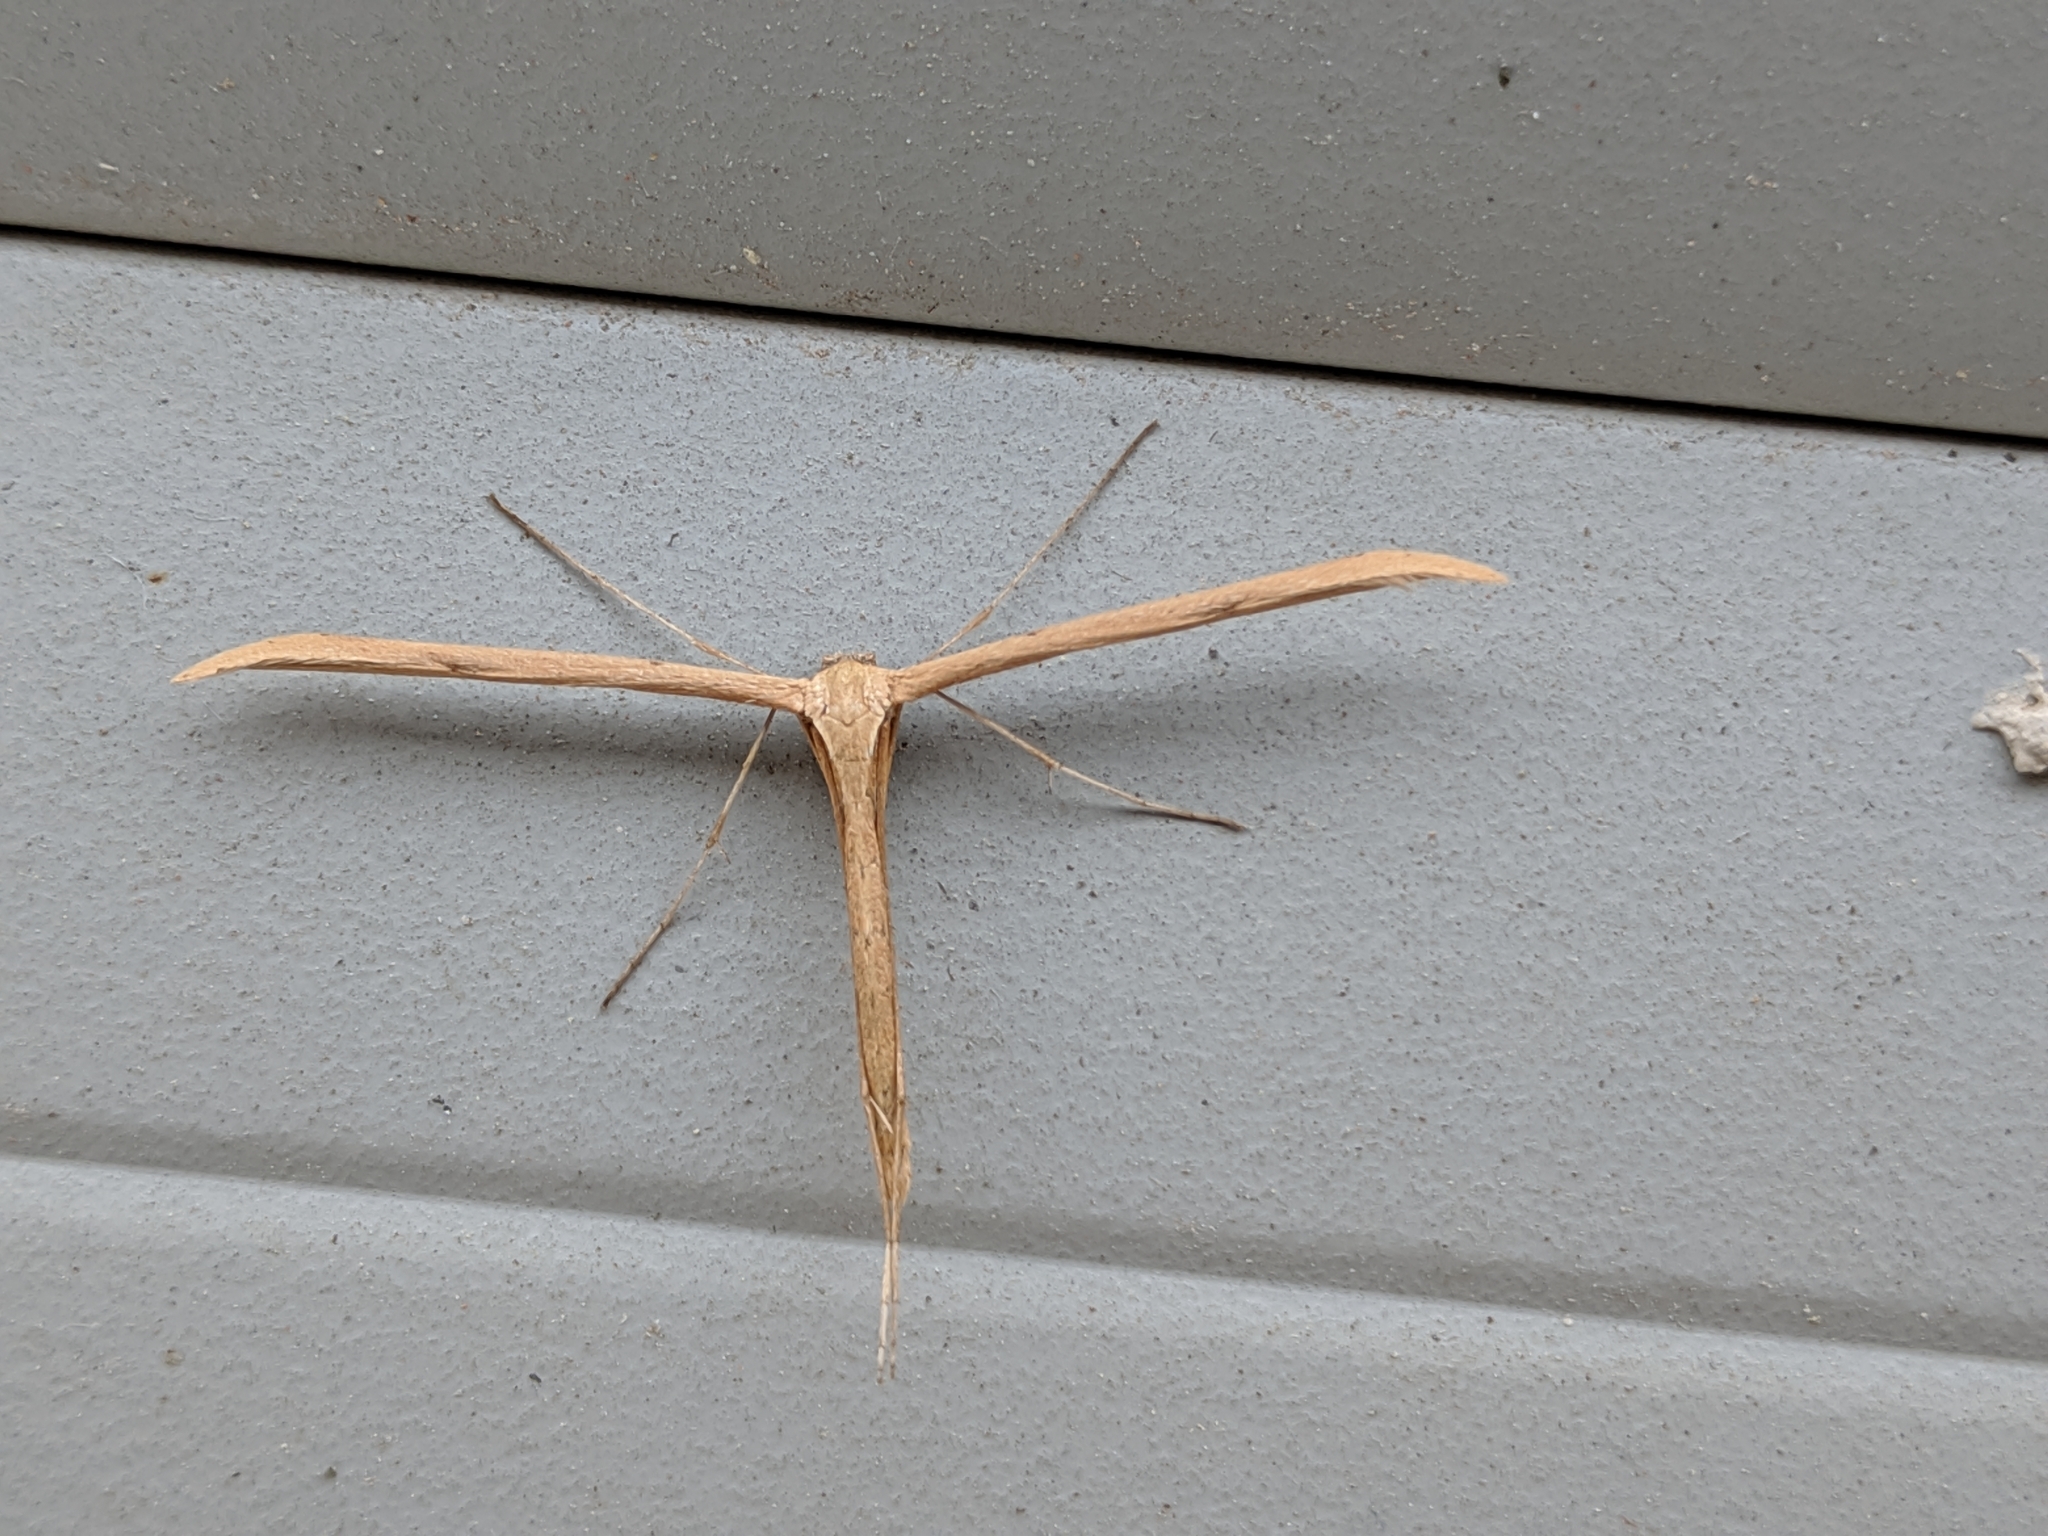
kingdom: Animalia
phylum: Arthropoda
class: Insecta
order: Lepidoptera
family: Pterophoridae
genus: Emmelina
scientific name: Emmelina monodactyla
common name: Common plume
